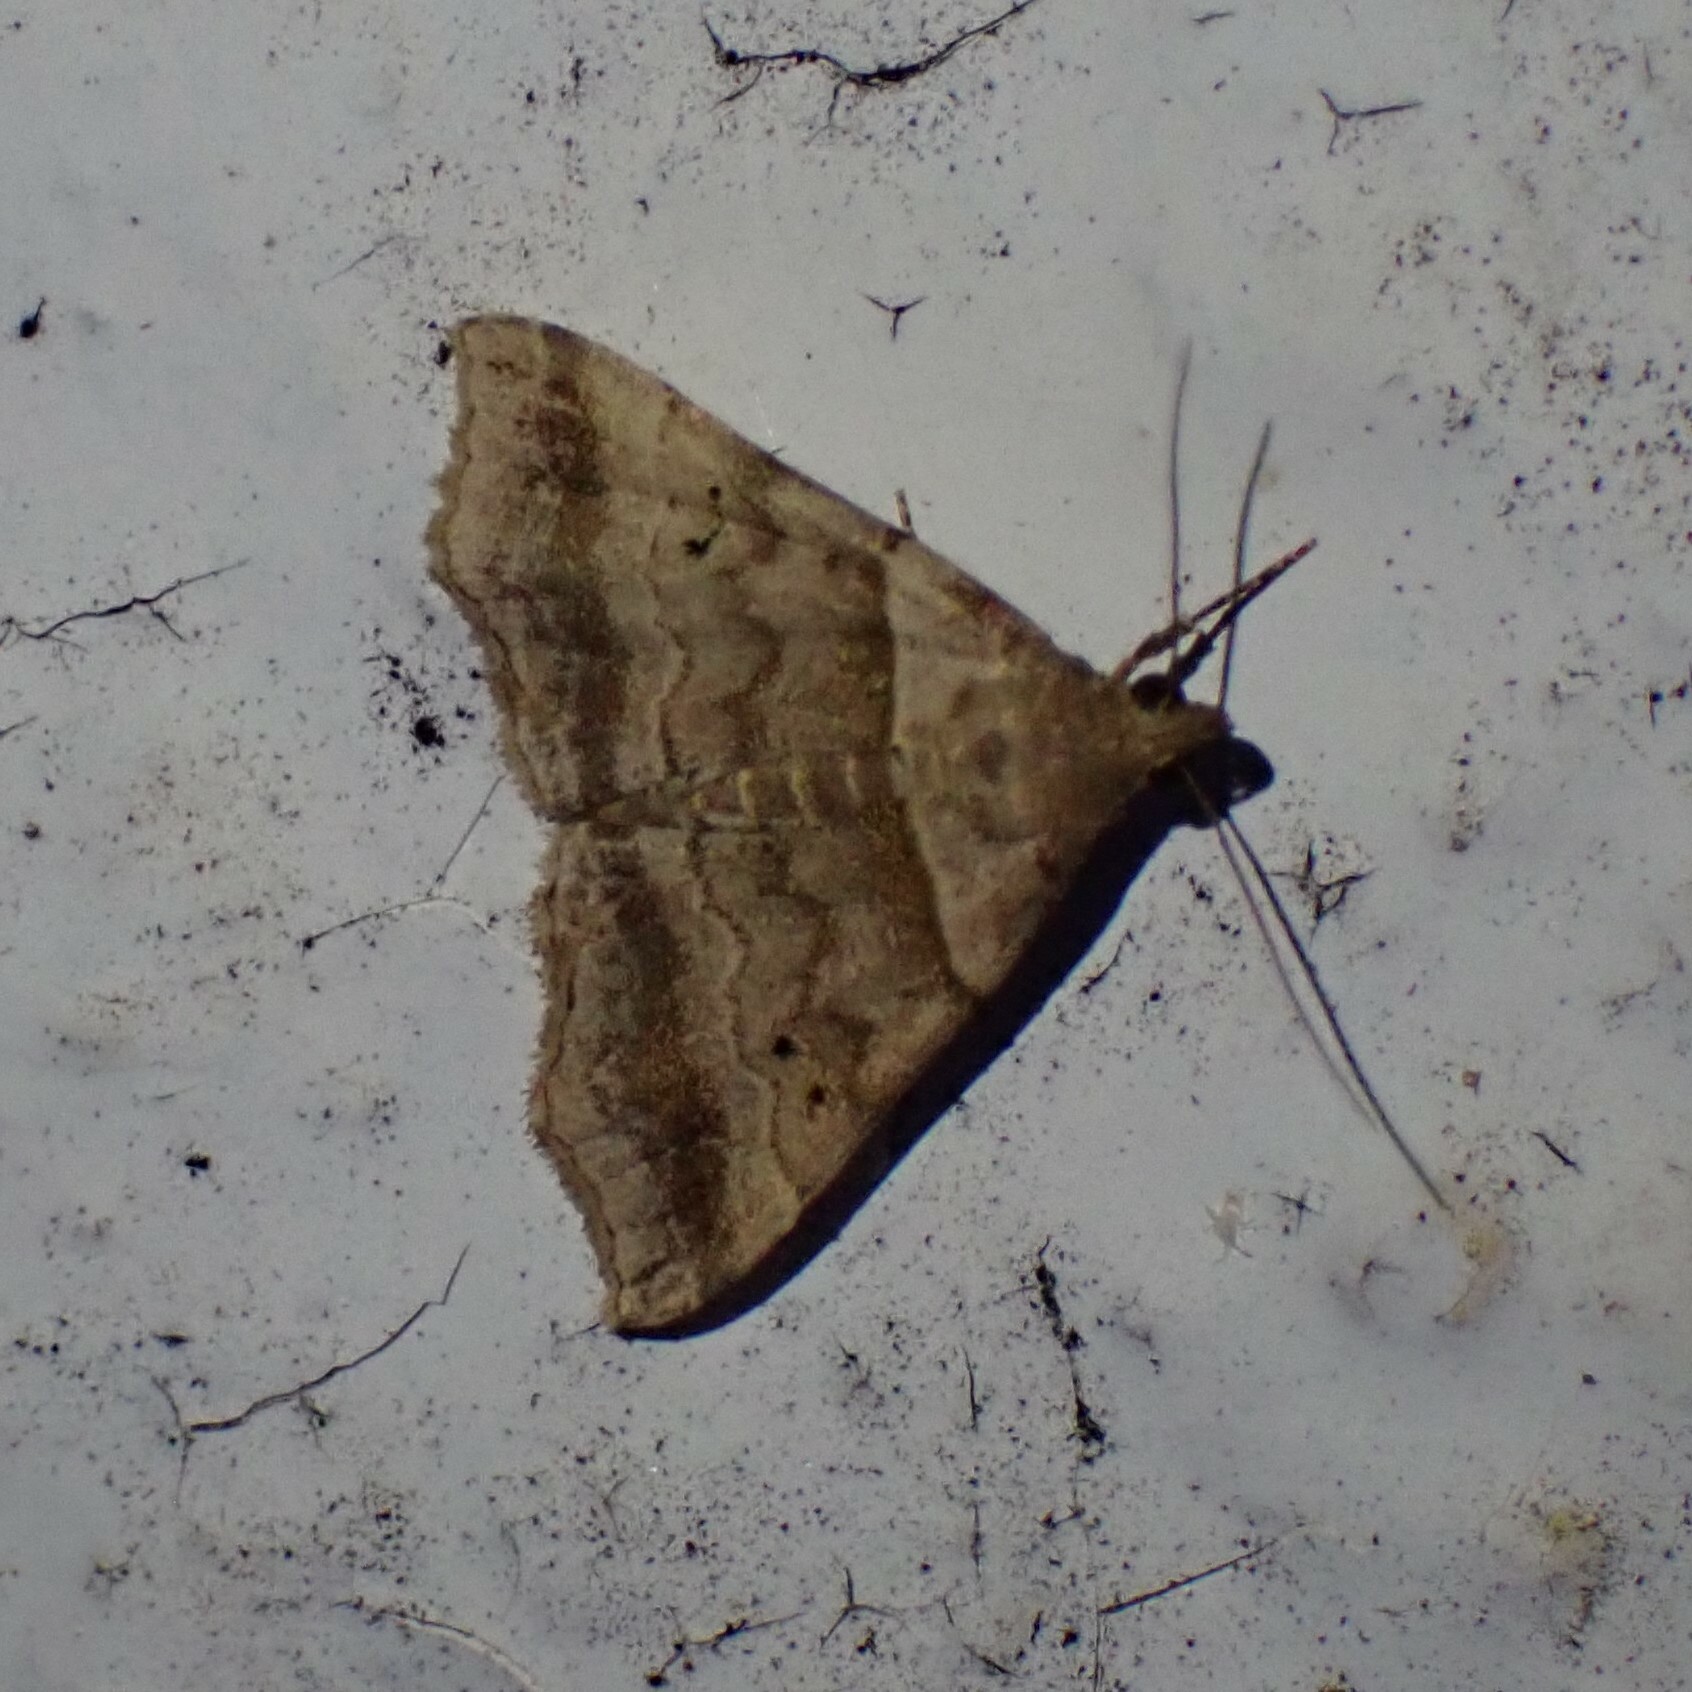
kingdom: Animalia
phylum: Arthropoda
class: Insecta
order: Lepidoptera
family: Erebidae
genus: Phaeolita
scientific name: Phaeolita pyramusalis
